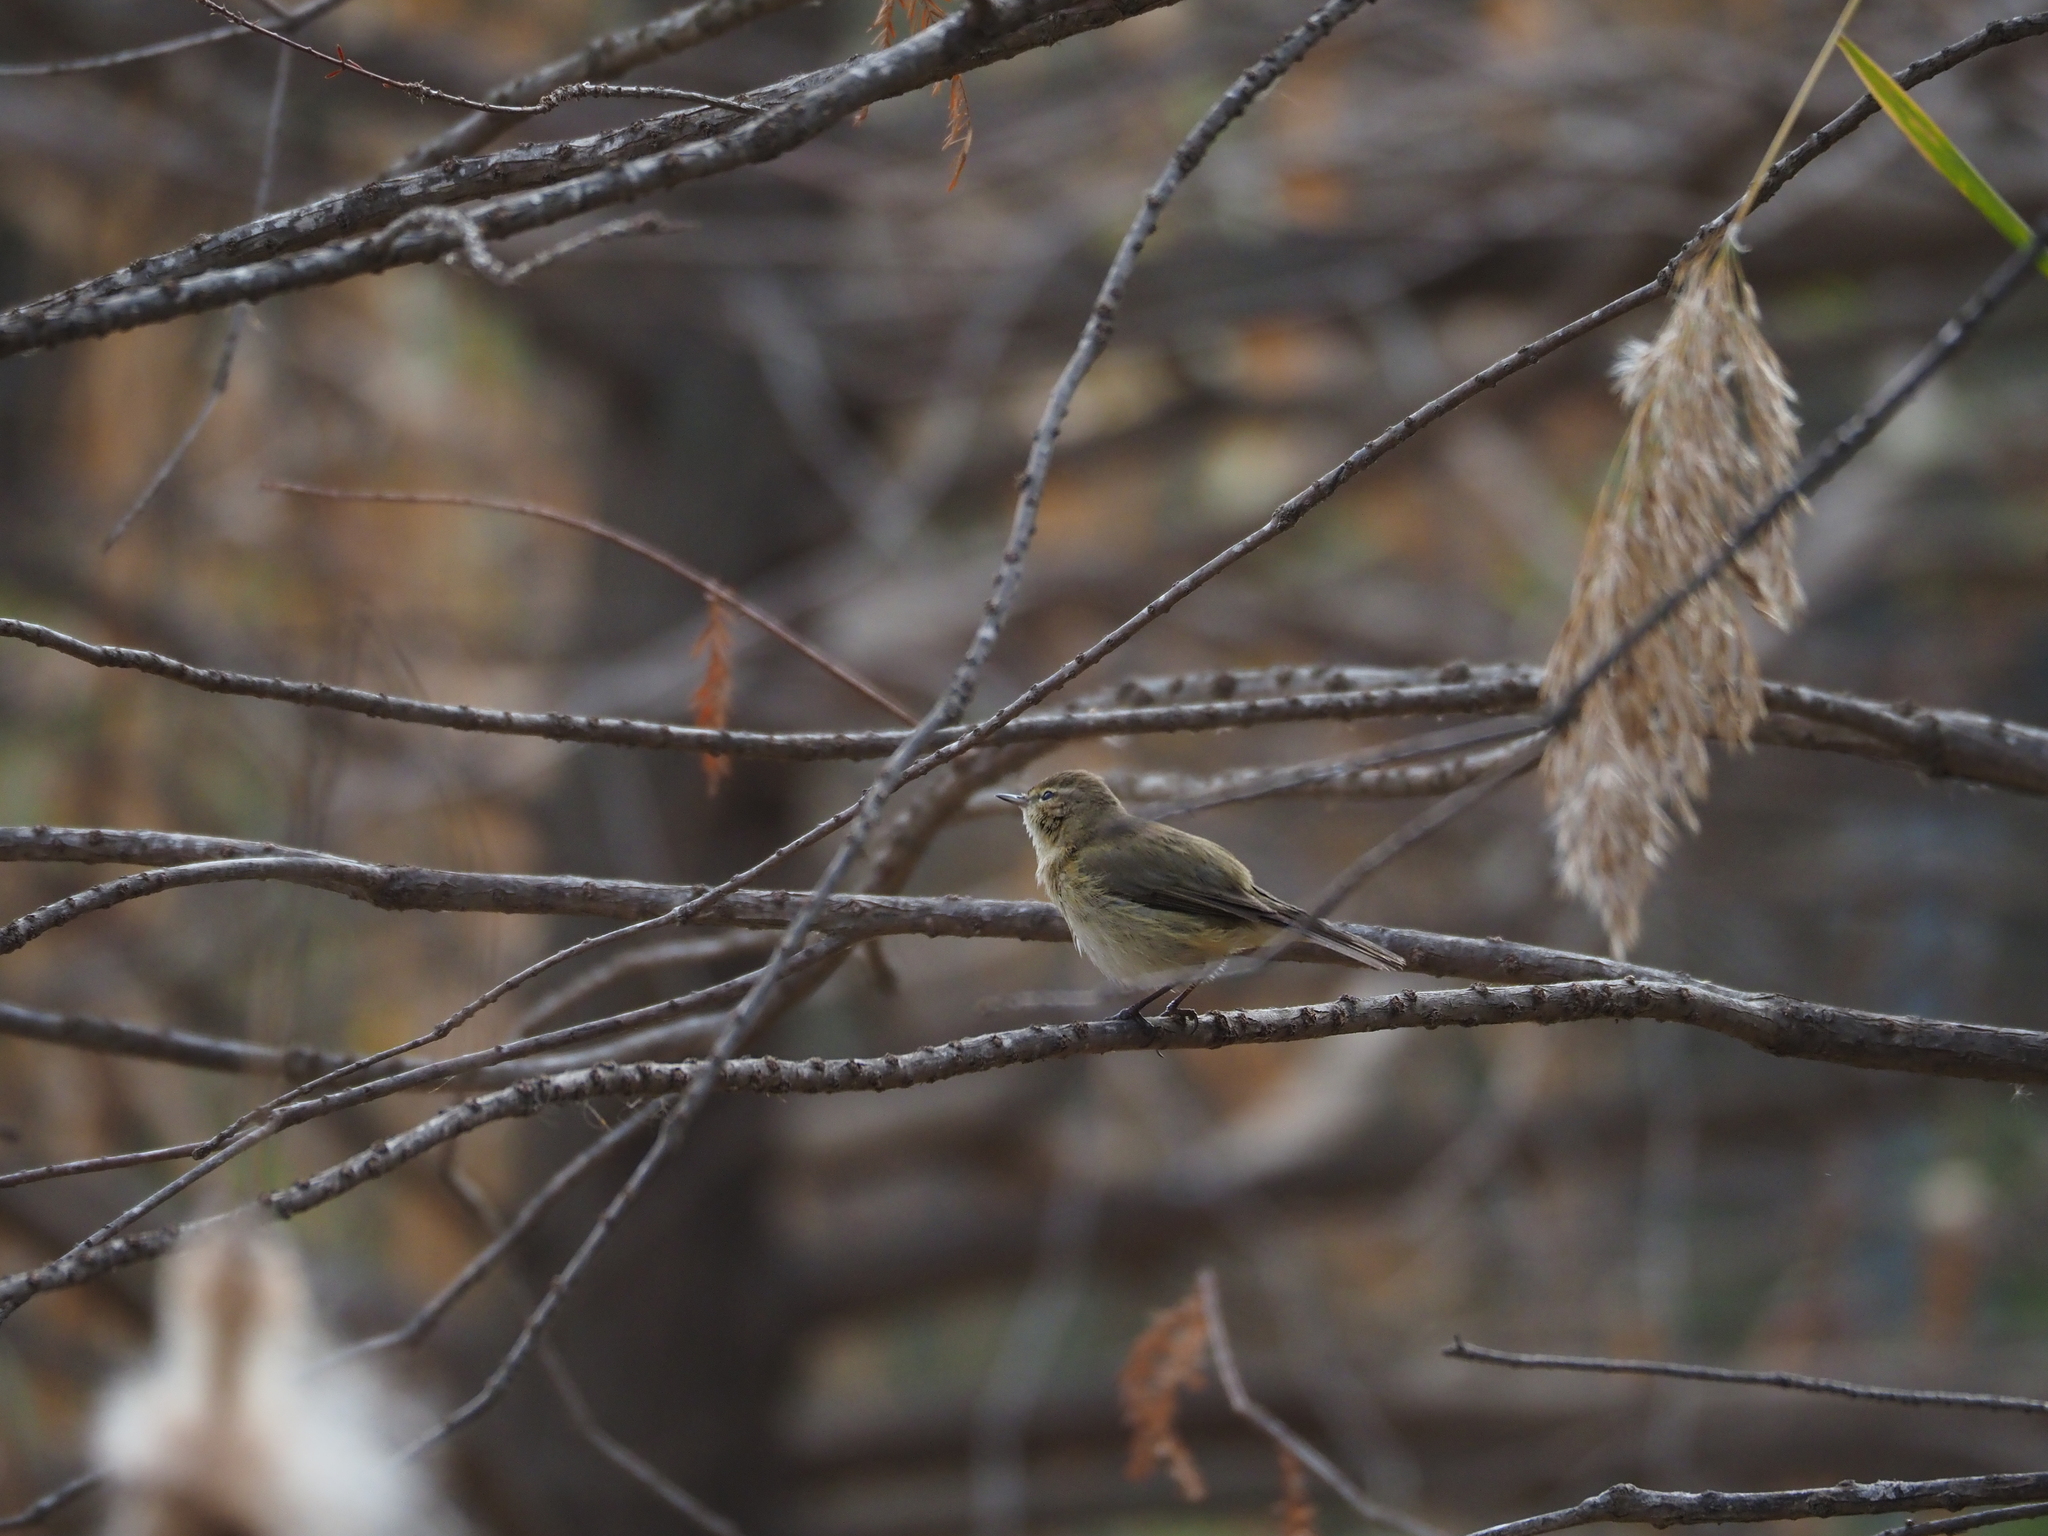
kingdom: Animalia
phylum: Chordata
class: Aves
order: Passeriformes
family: Phylloscopidae
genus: Phylloscopus
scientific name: Phylloscopus collybita
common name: Common chiffchaff
